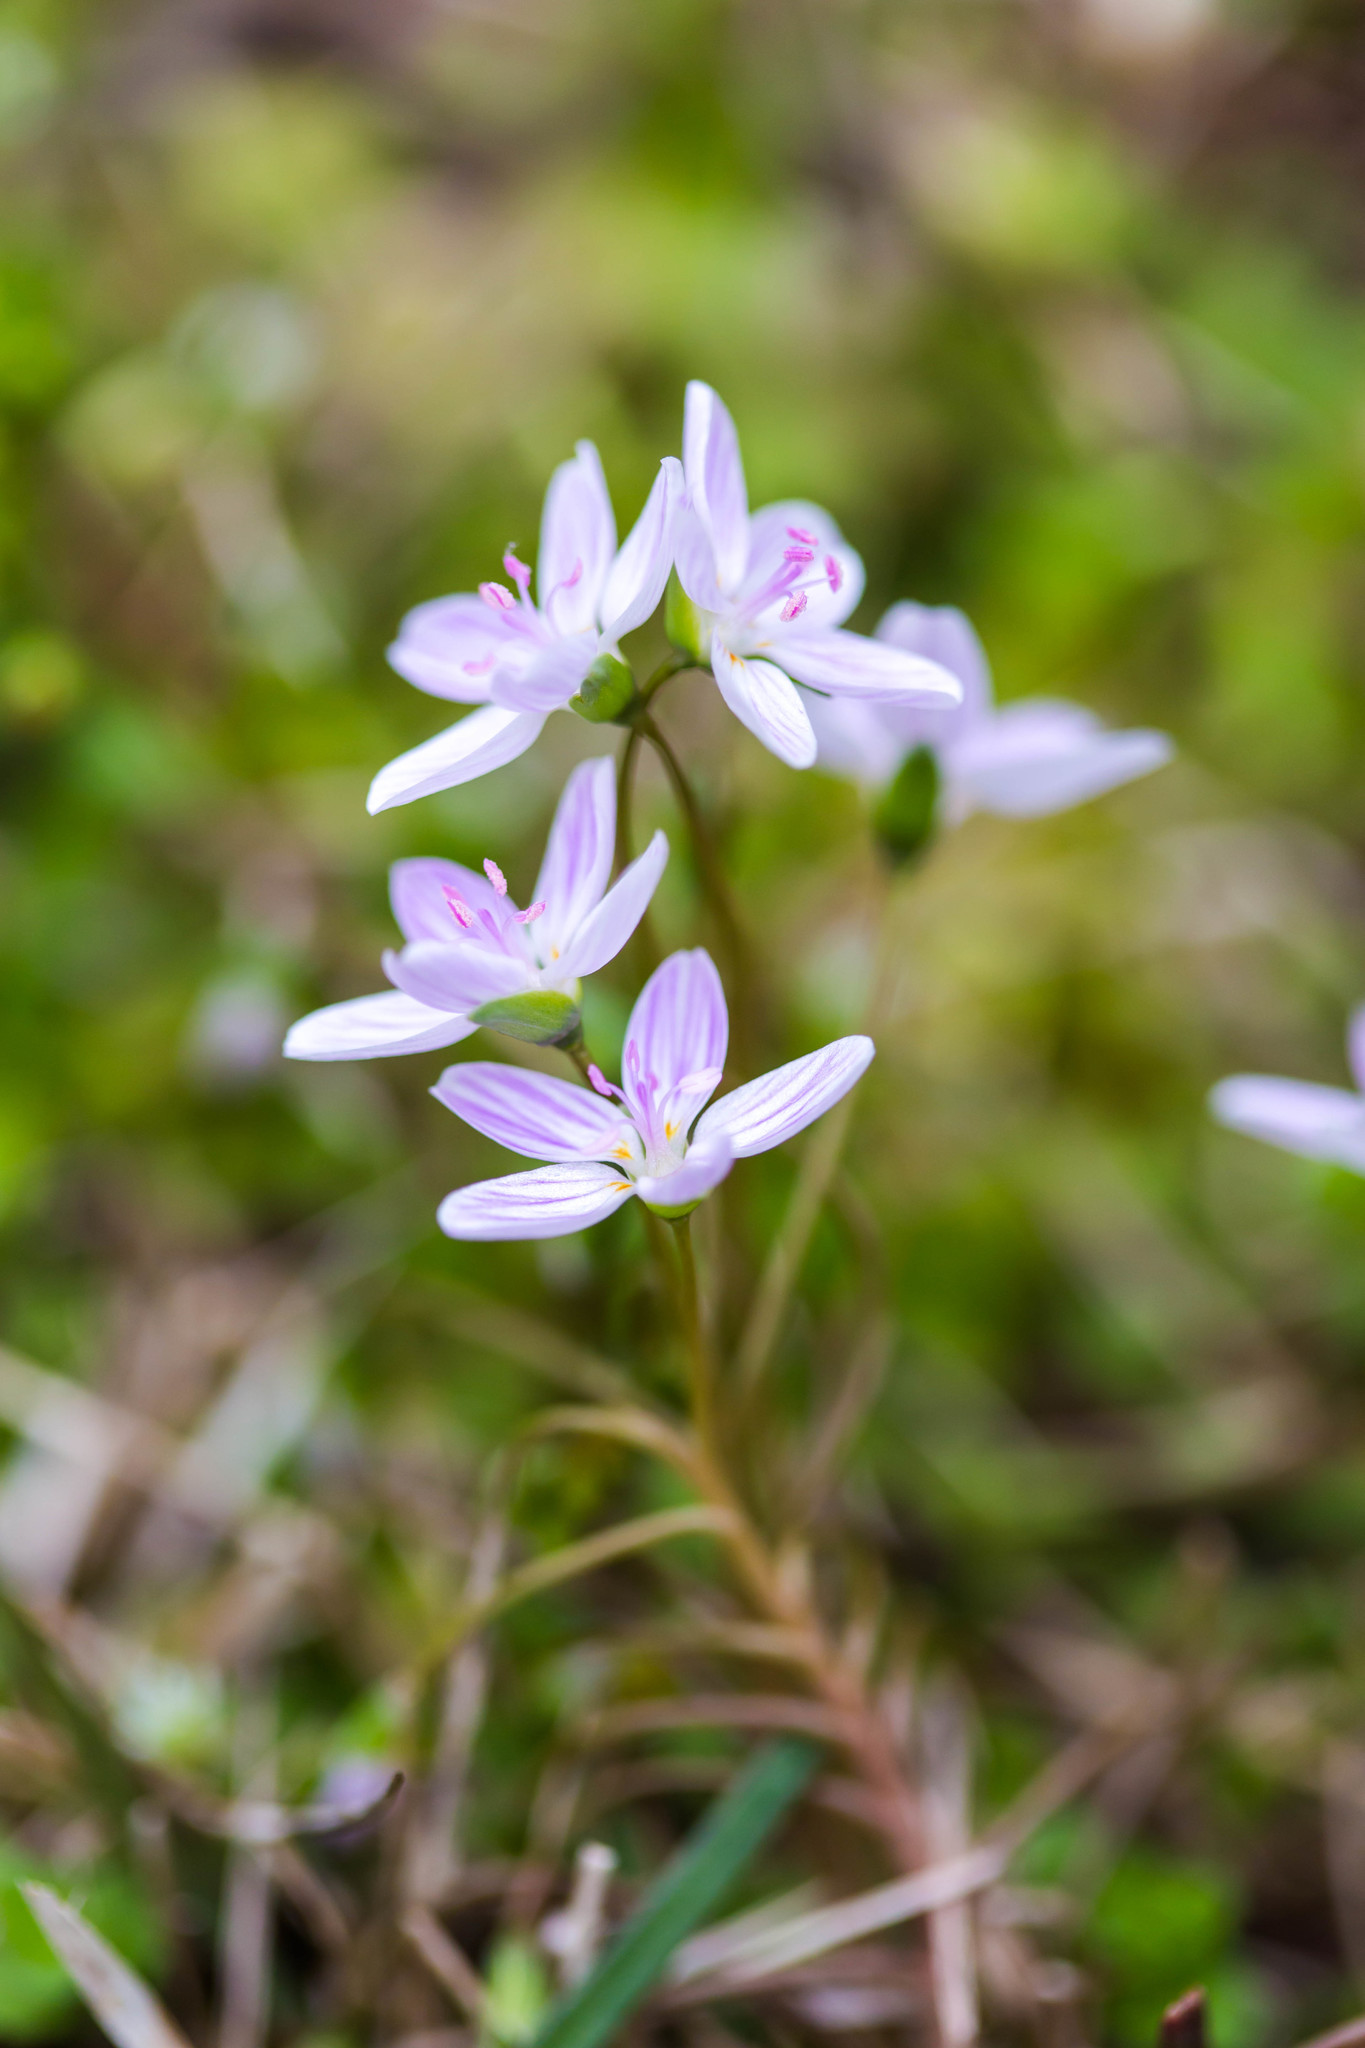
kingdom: Plantae
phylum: Tracheophyta
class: Magnoliopsida
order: Caryophyllales
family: Montiaceae
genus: Claytonia
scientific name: Claytonia virginica
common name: Virginia springbeauty
